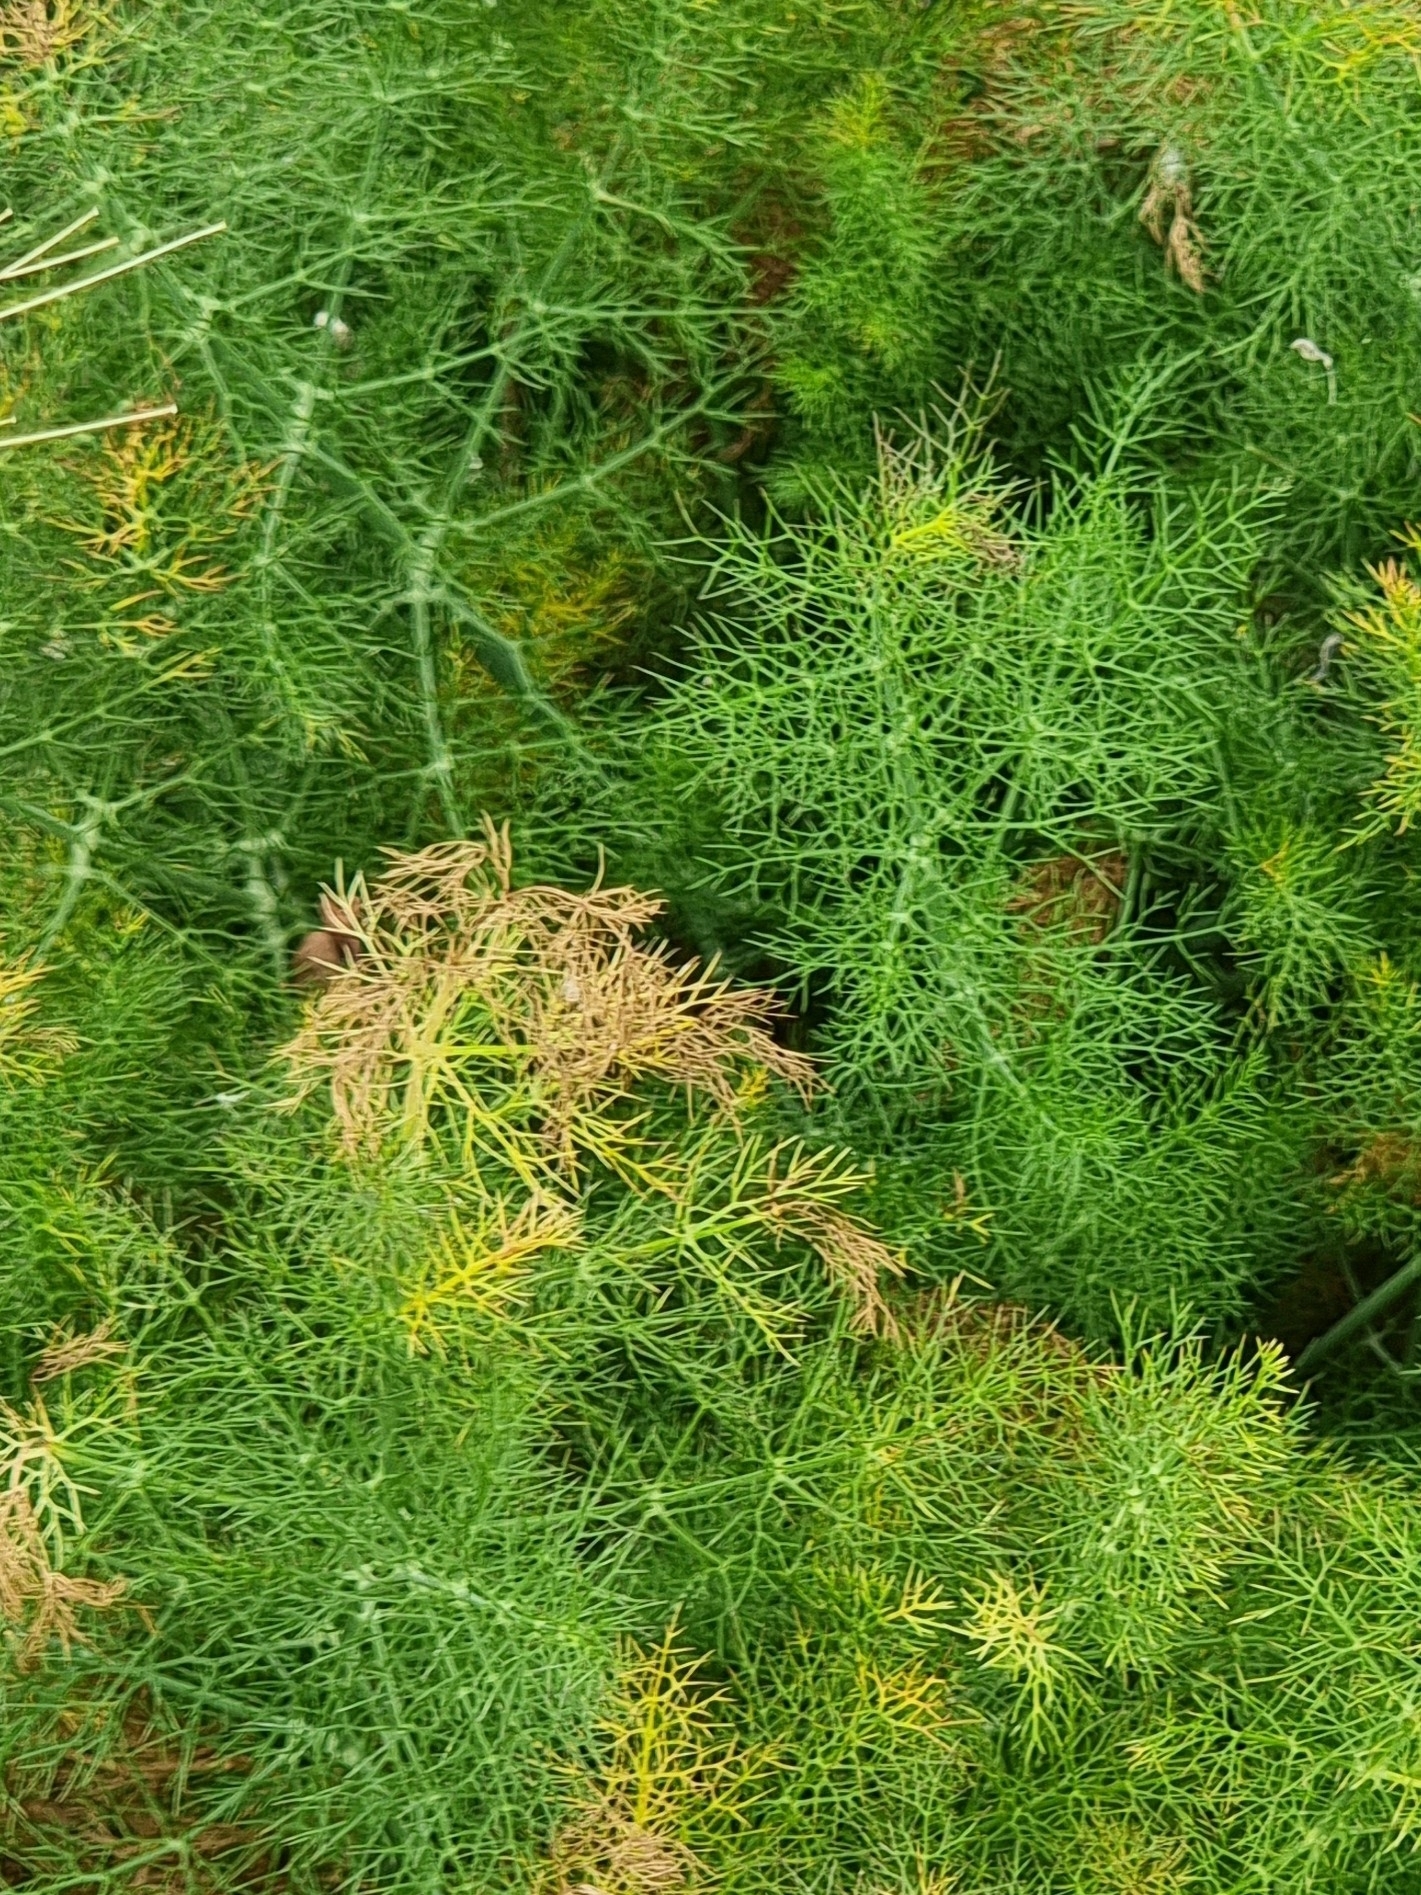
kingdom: Plantae
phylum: Tracheophyta
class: Magnoliopsida
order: Apiales
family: Apiaceae
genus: Foeniculum
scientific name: Foeniculum vulgare
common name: Fennel
